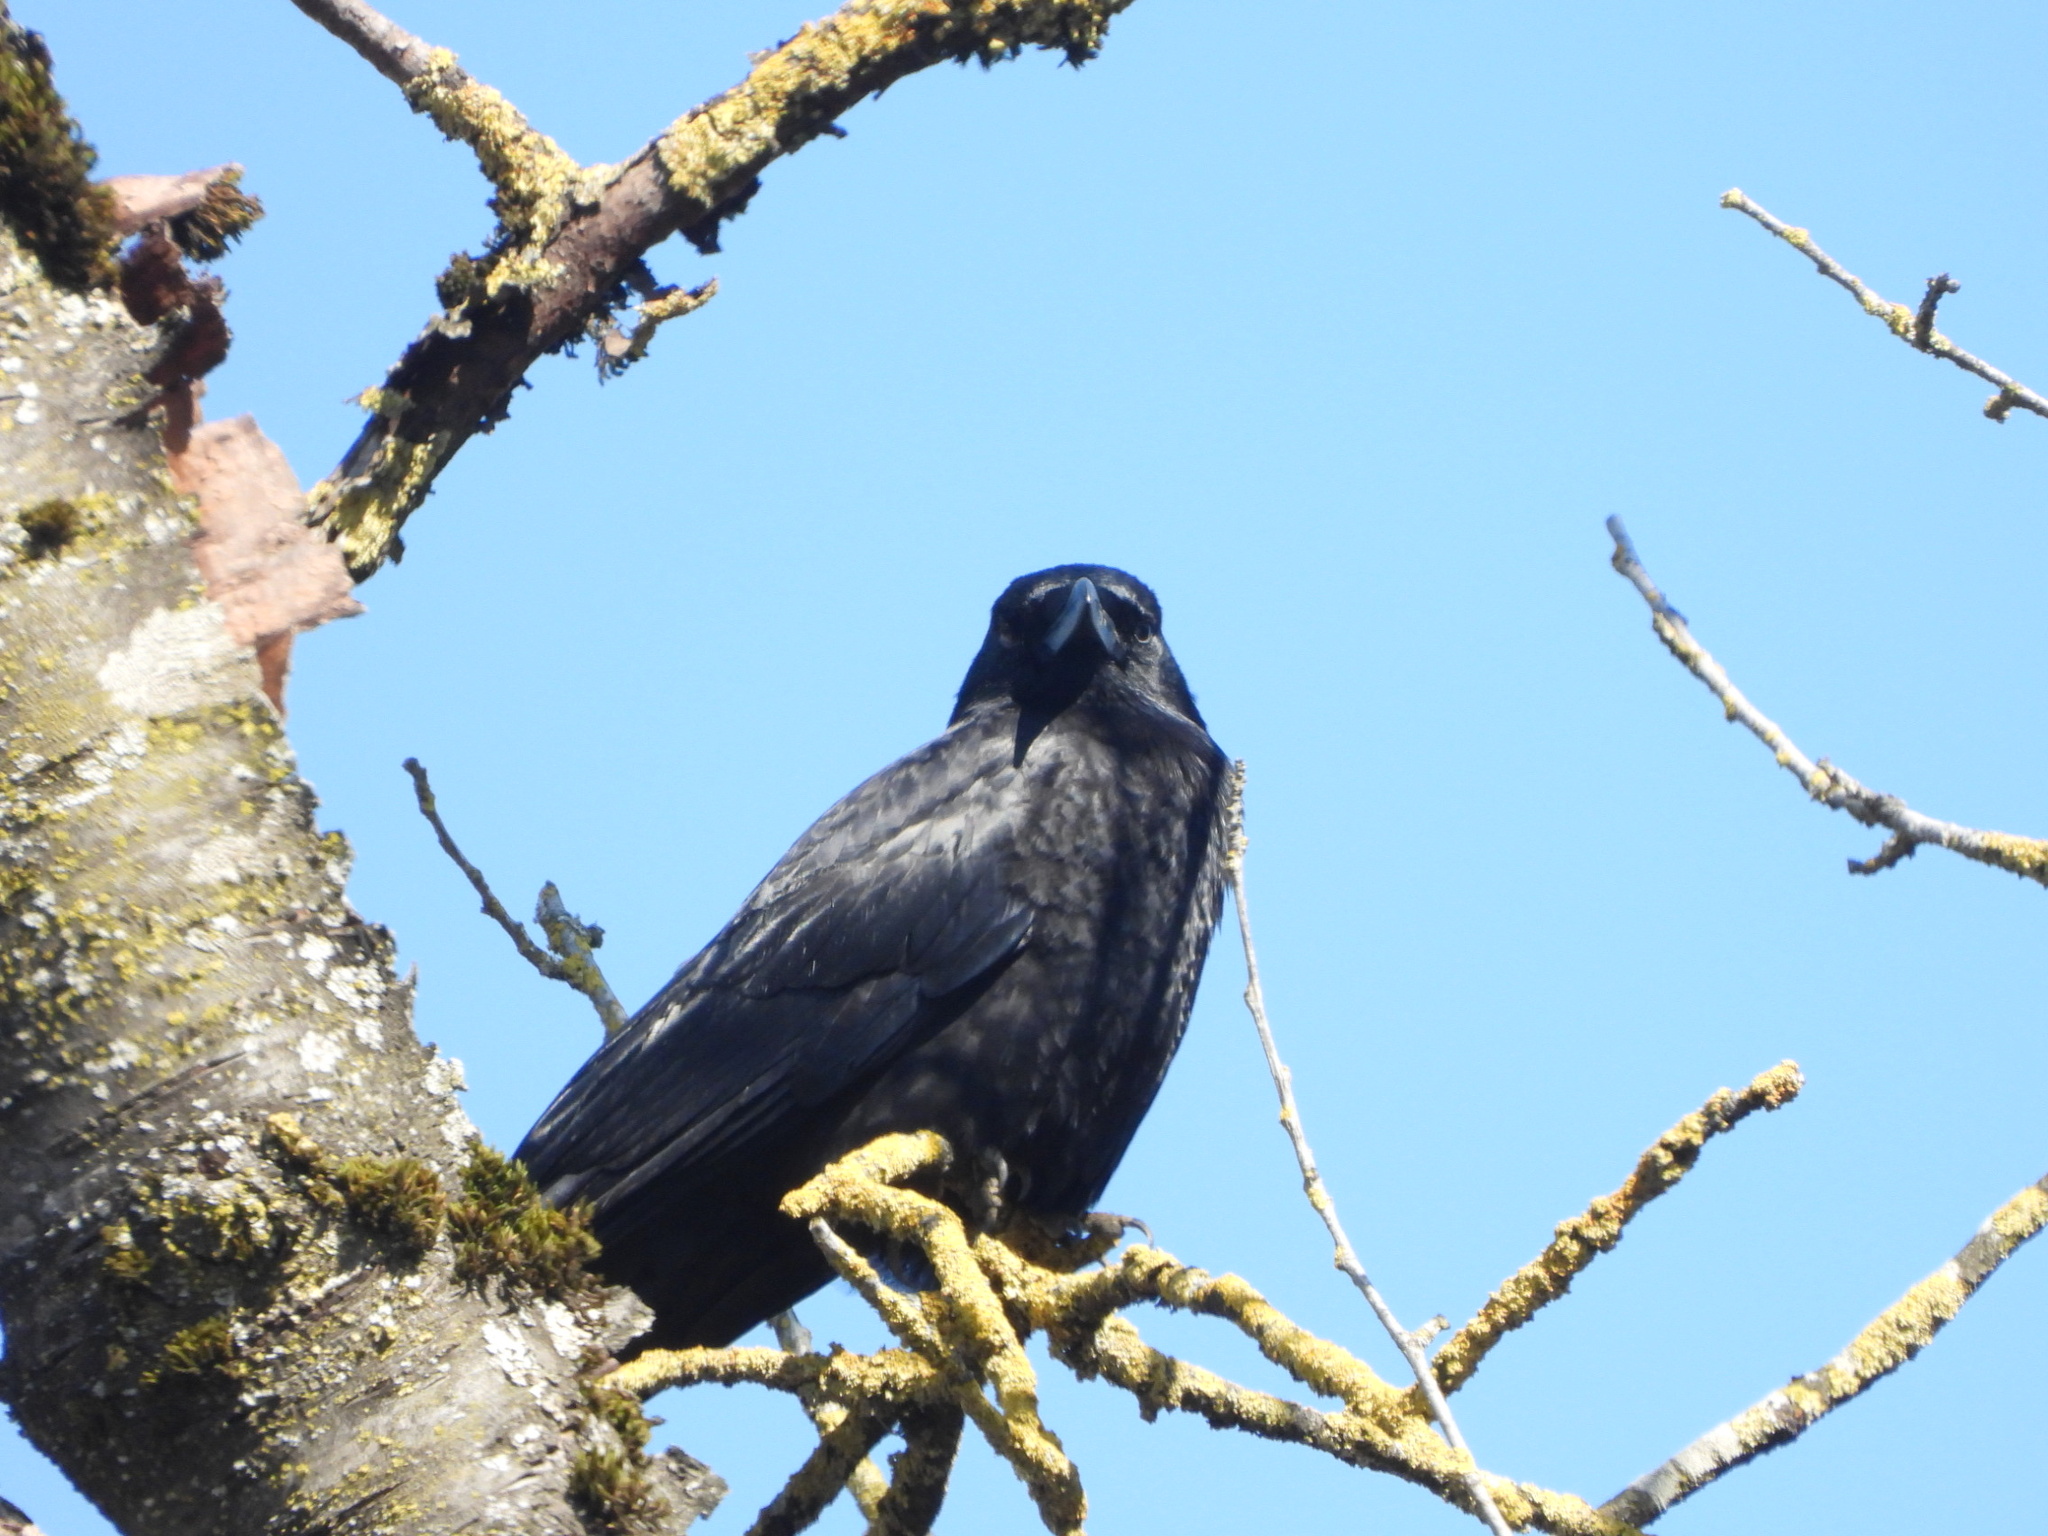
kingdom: Animalia
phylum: Chordata
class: Aves
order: Passeriformes
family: Corvidae
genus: Corvus
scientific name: Corvus brachyrhynchos
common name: American crow
